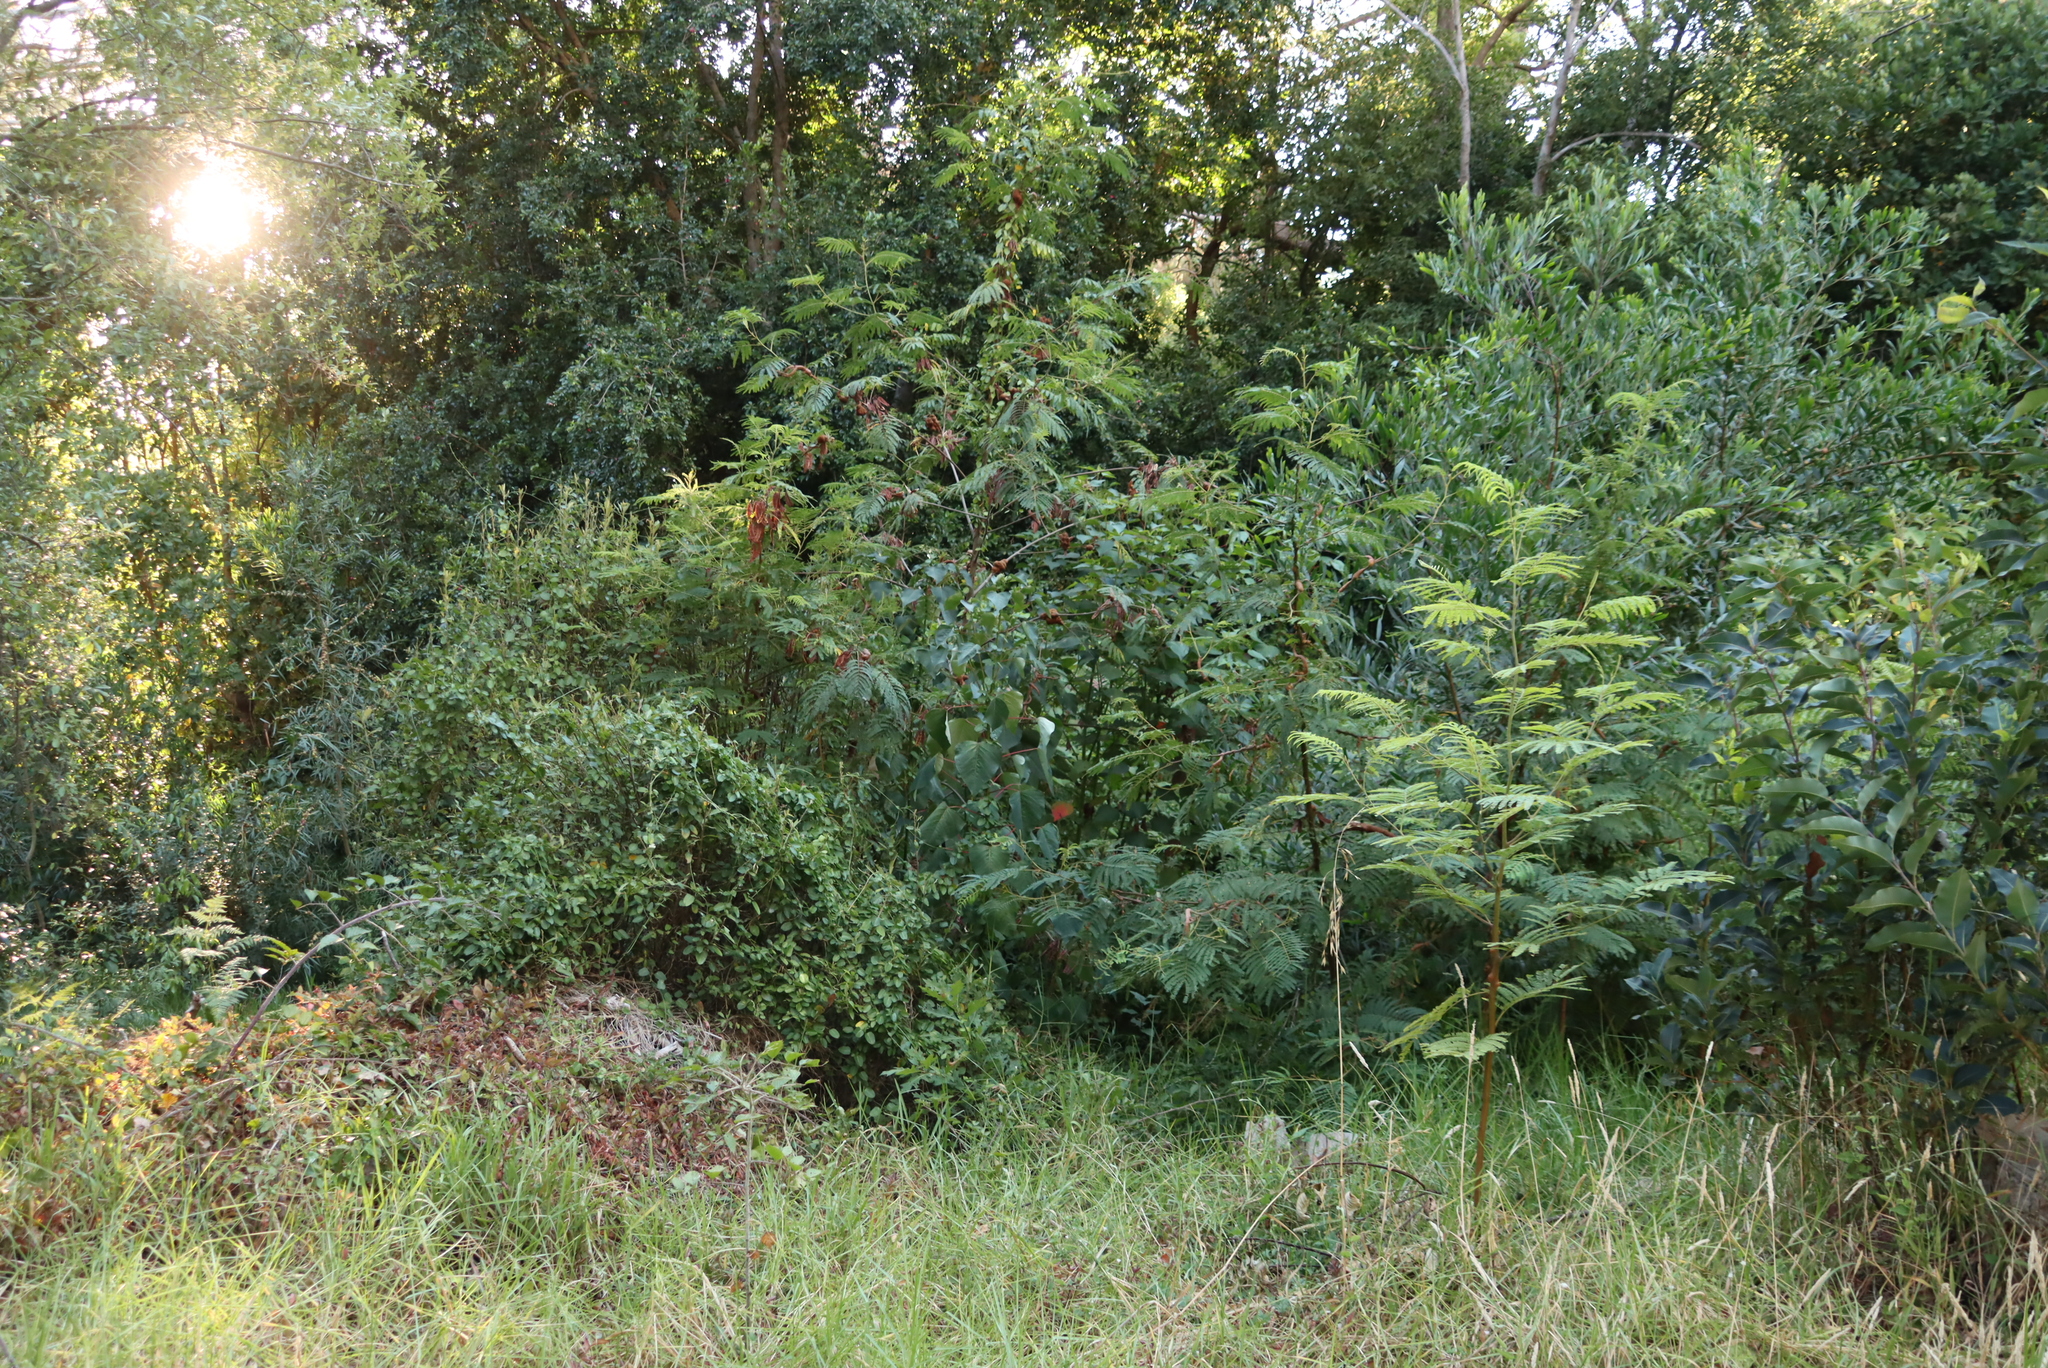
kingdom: Plantae
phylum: Tracheophyta
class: Magnoliopsida
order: Fabales
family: Fabaceae
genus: Paraserianthes
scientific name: Paraserianthes lophantha
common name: Plume albizia
